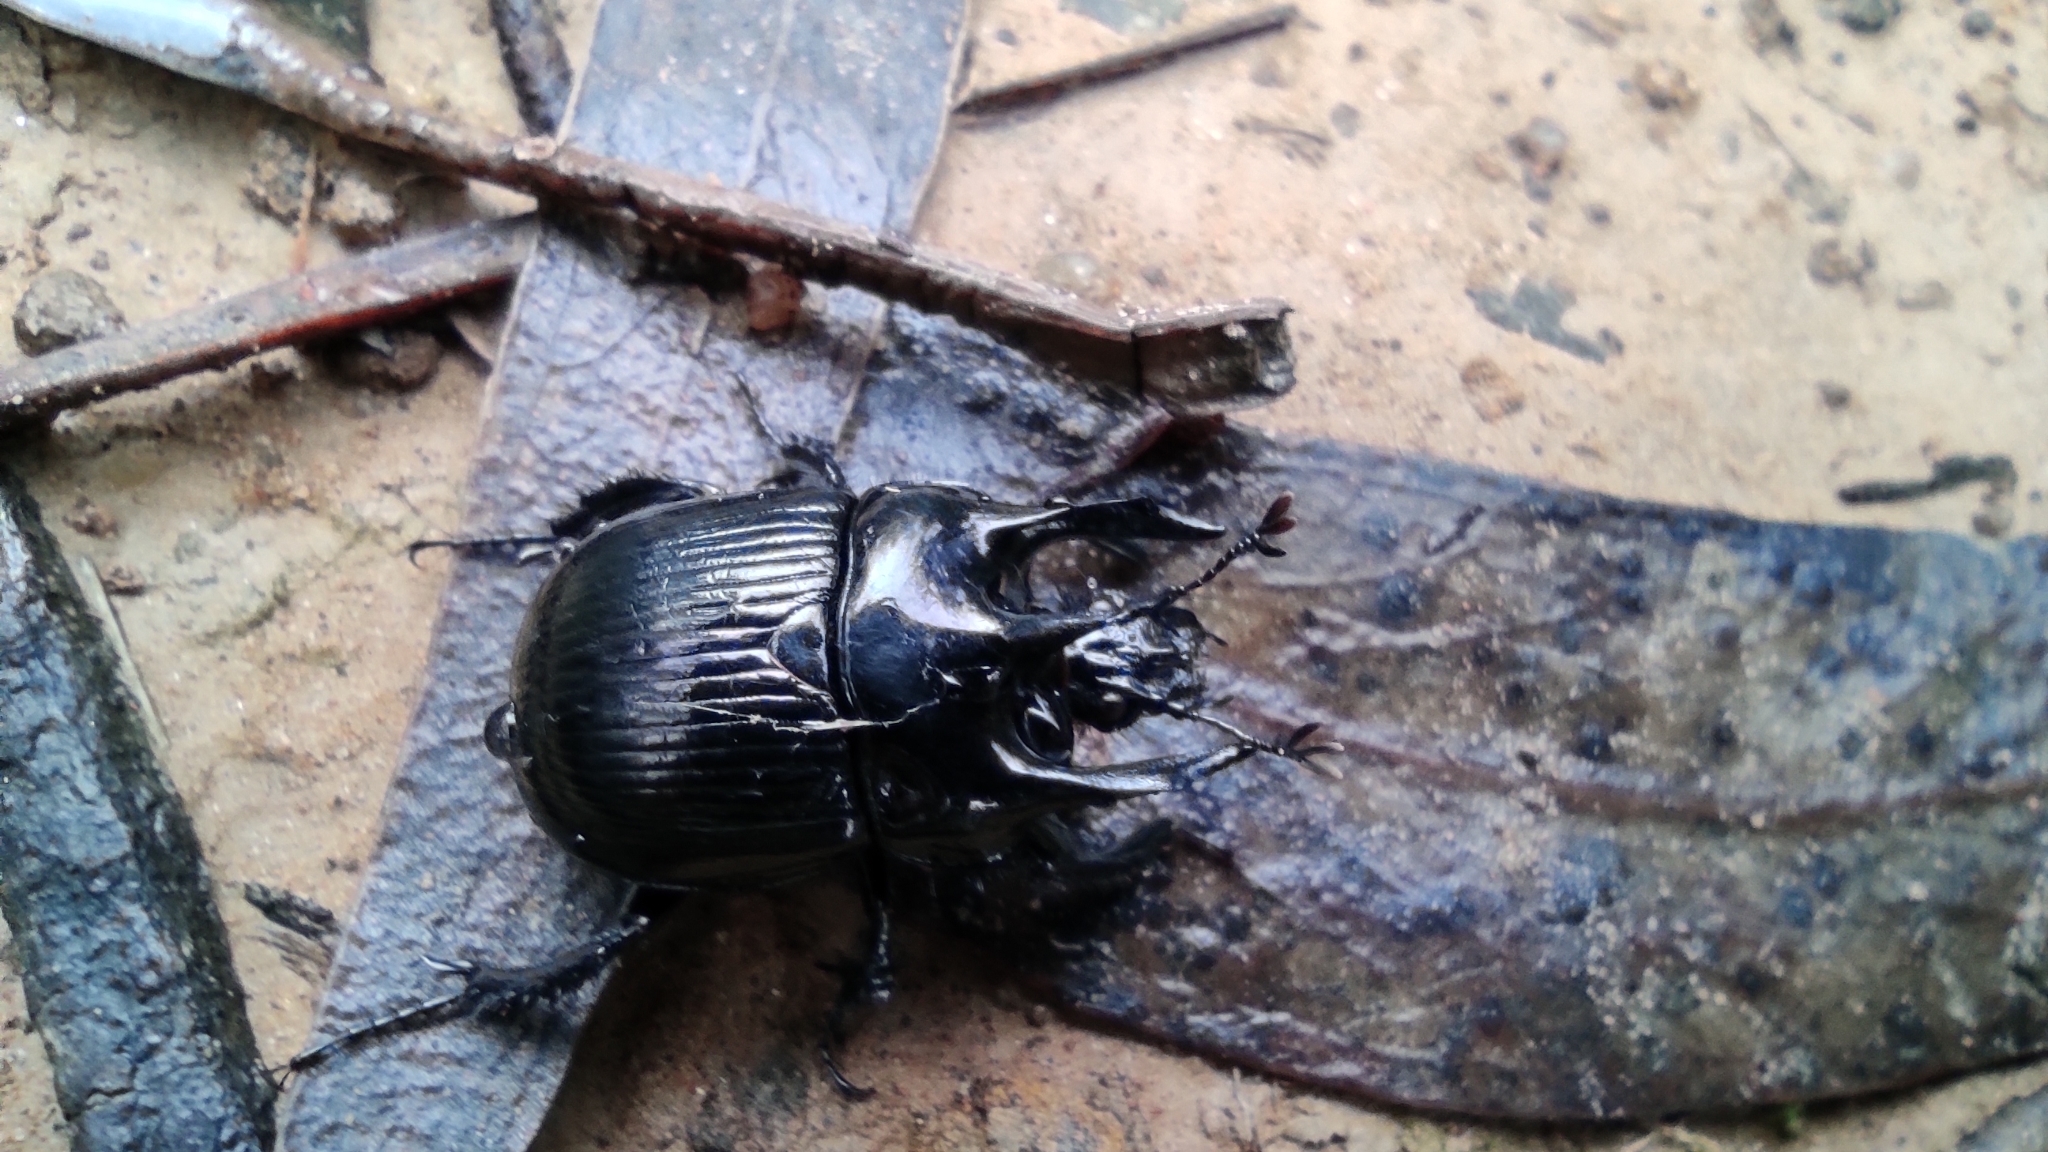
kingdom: Animalia
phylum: Arthropoda
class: Insecta
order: Coleoptera
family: Geotrupidae
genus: Typhaeus
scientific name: Typhaeus typhoeus
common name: Minotaur beetle
